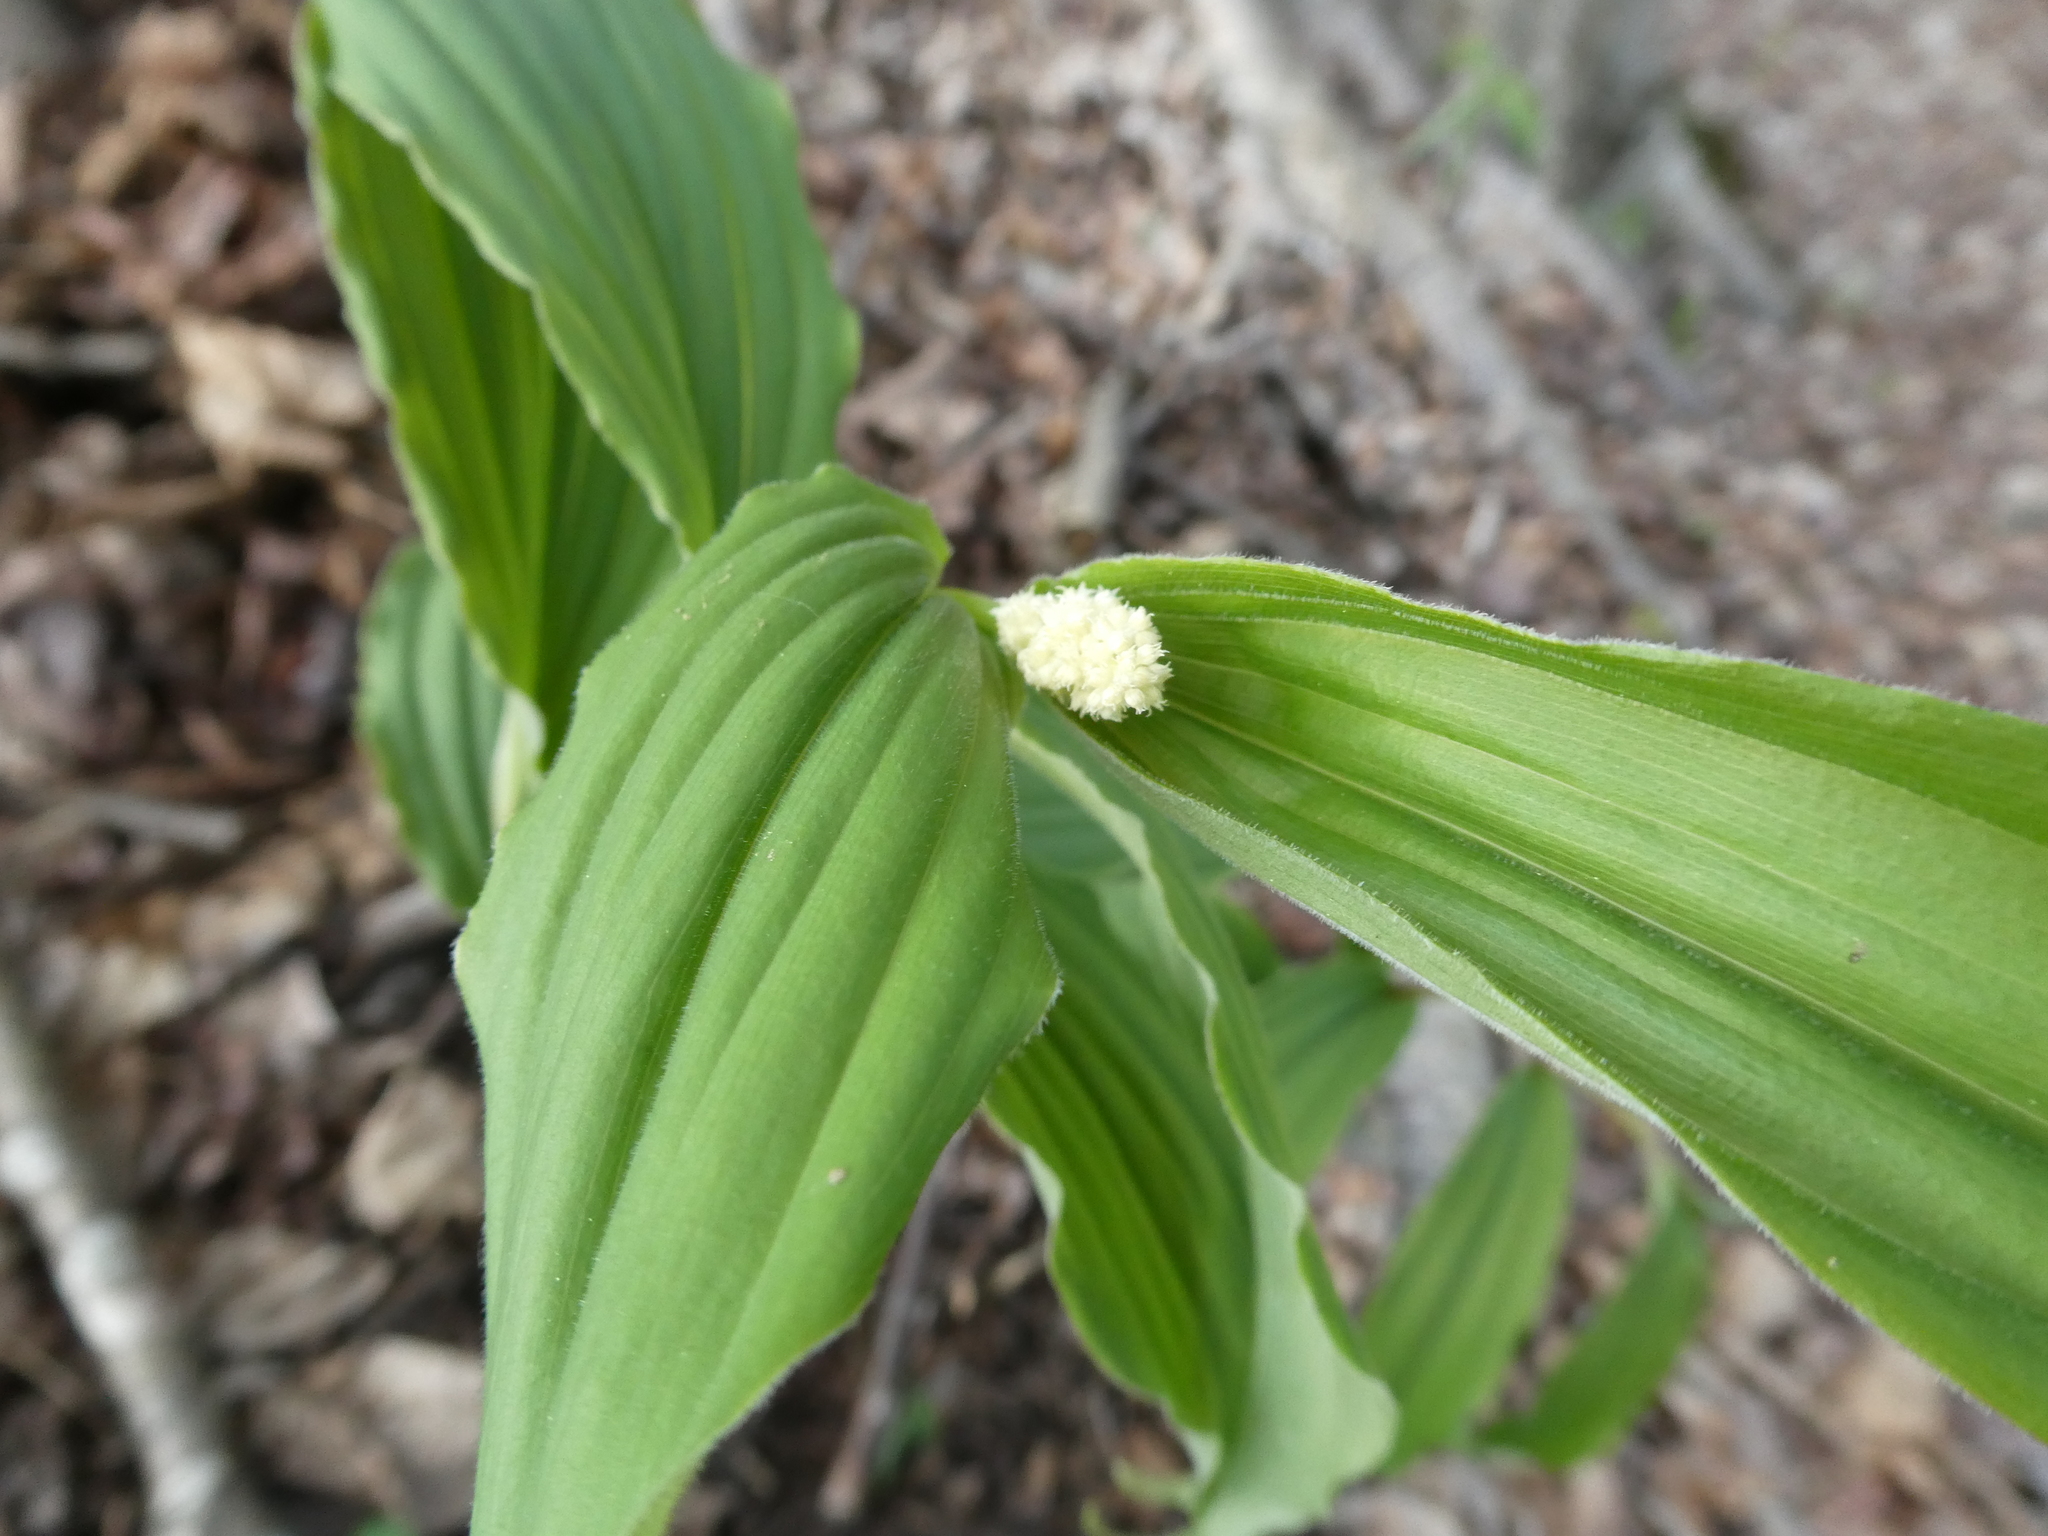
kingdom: Plantae
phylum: Tracheophyta
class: Liliopsida
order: Asparagales
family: Asparagaceae
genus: Maianthemum
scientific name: Maianthemum racemosum
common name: False spikenard
